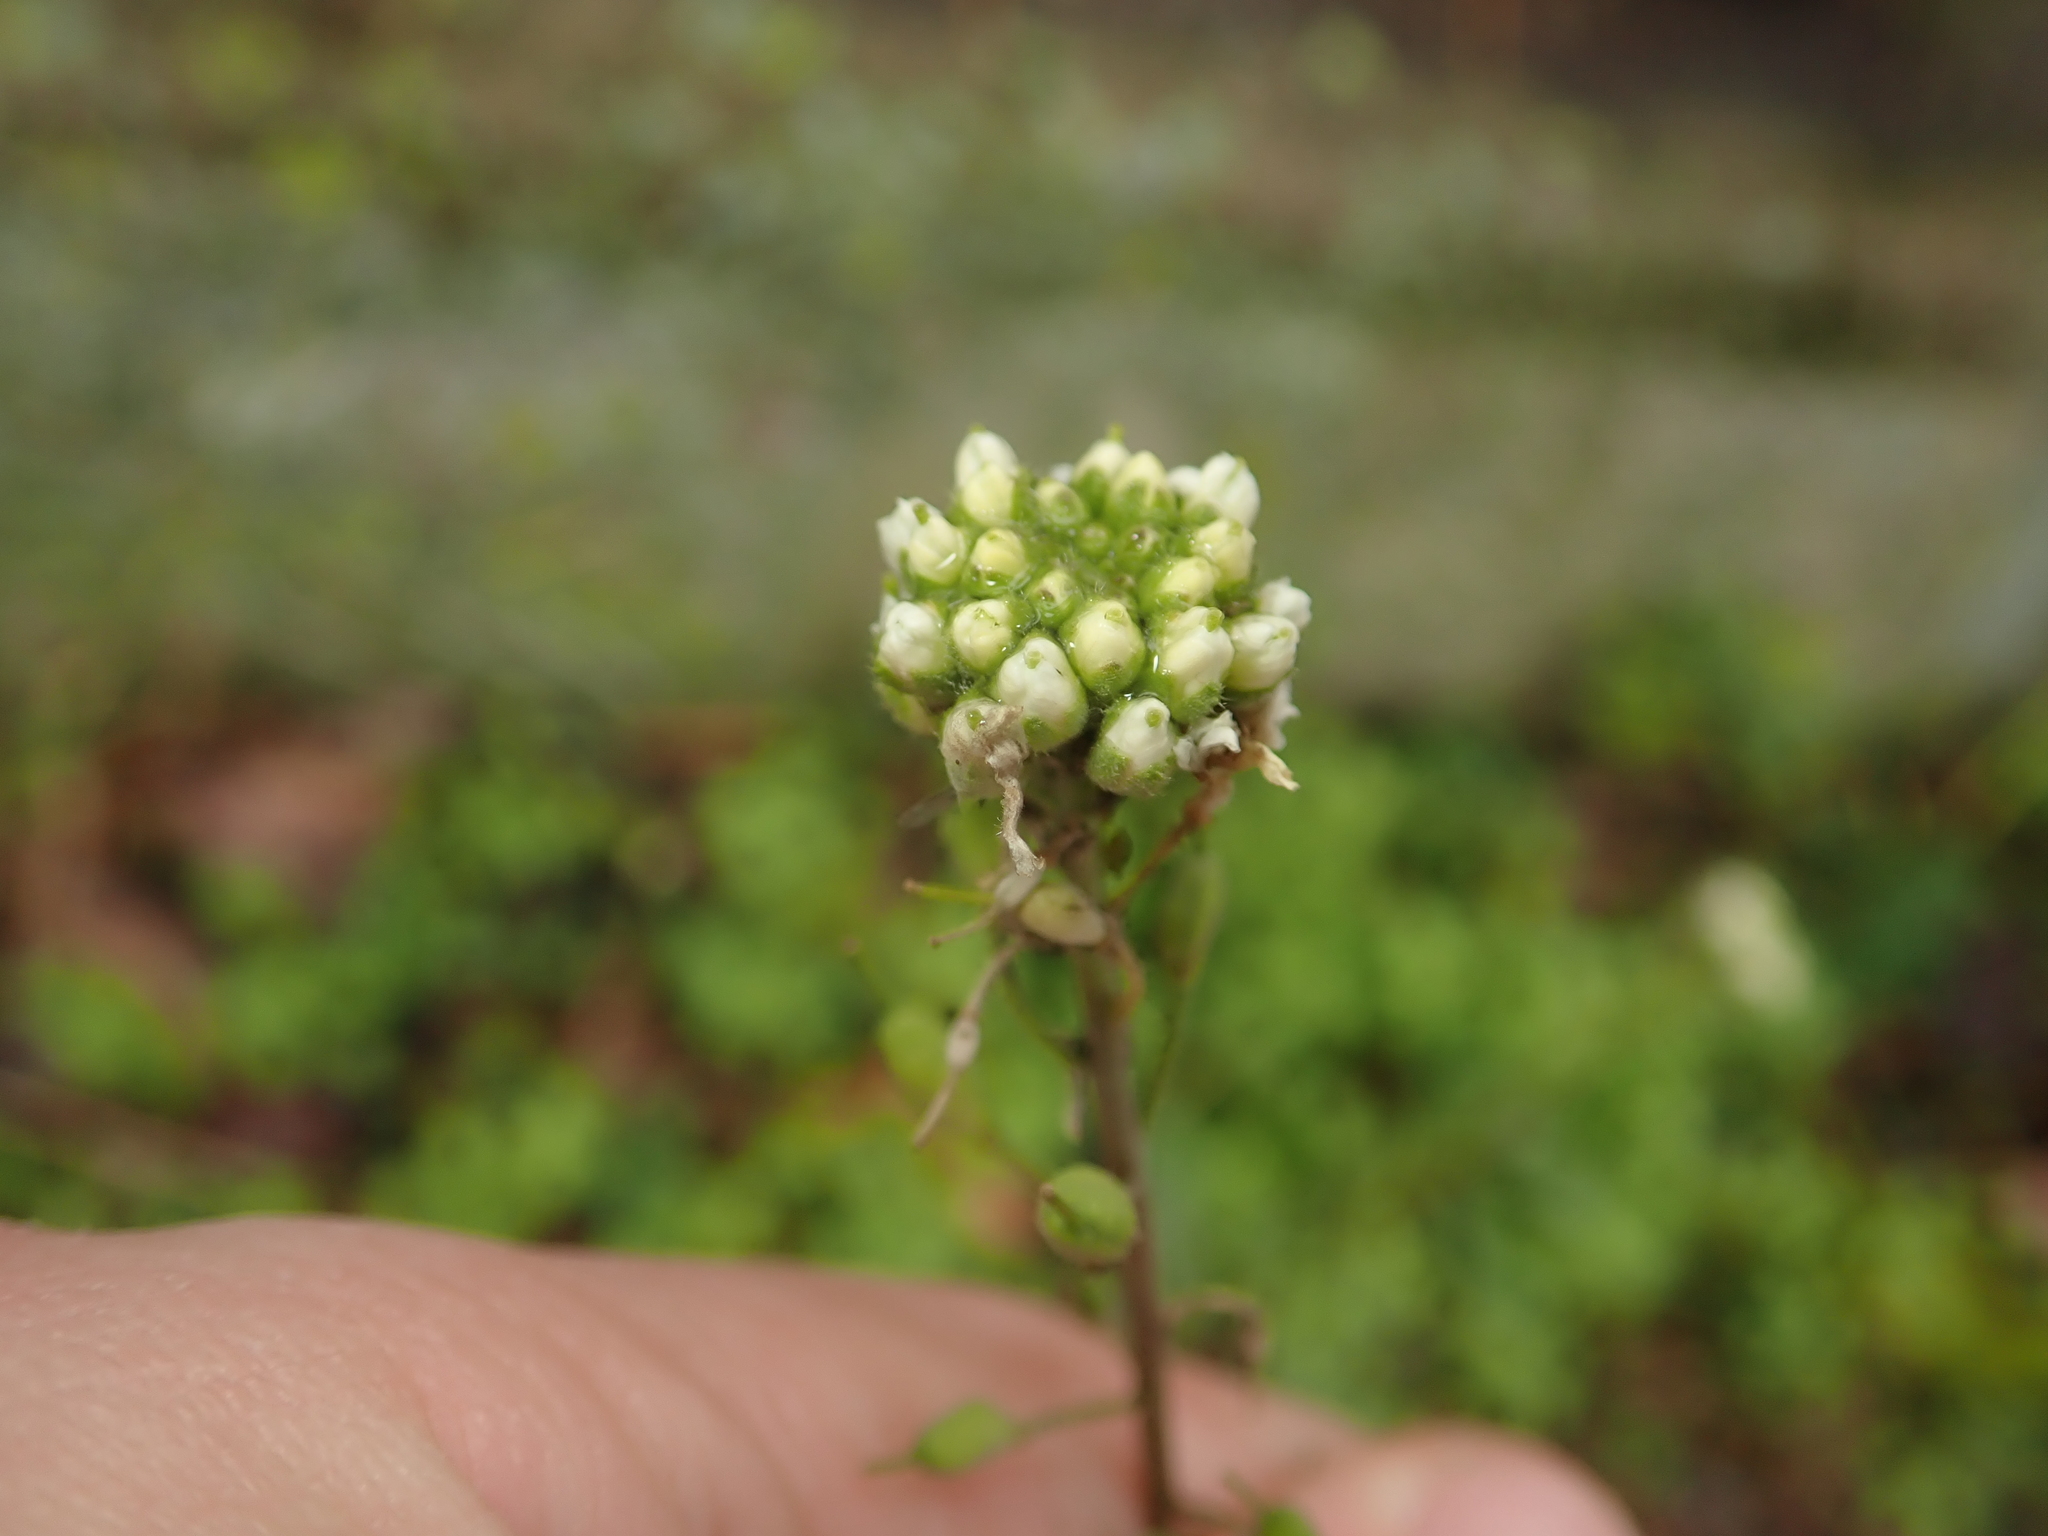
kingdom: Plantae
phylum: Tracheophyta
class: Magnoliopsida
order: Brassicales
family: Brassicaceae
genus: Capsella
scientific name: Capsella bursa-pastoris
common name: Shepherd's purse
